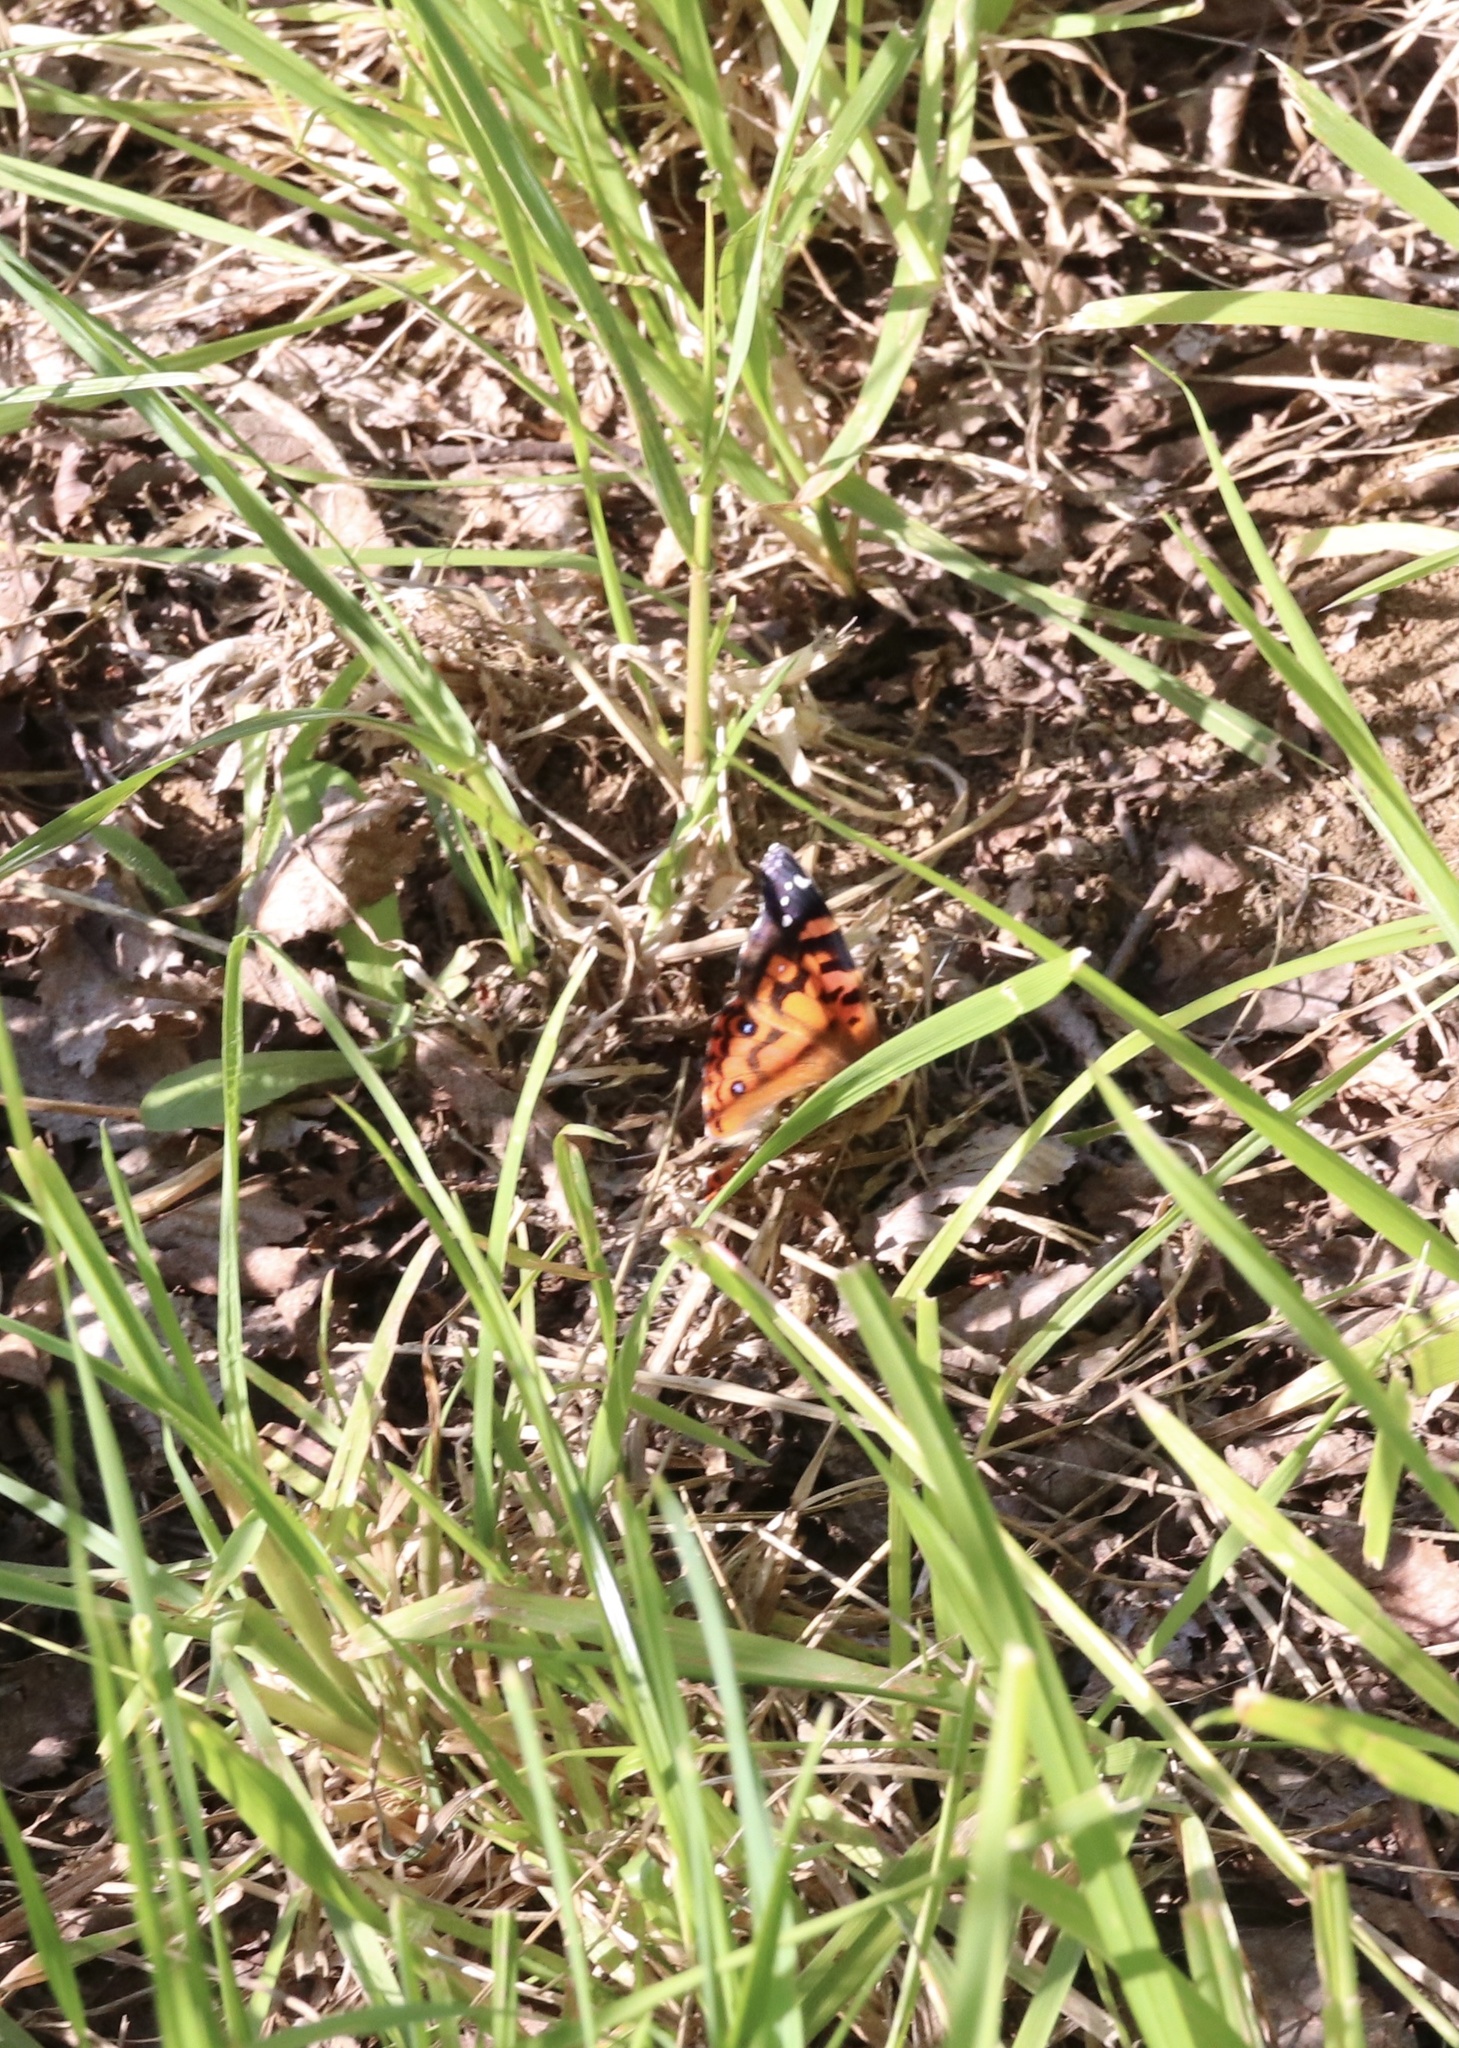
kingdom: Animalia
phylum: Arthropoda
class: Insecta
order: Lepidoptera
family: Nymphalidae
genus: Vanessa
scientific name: Vanessa terpsichore
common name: Chilean lady
